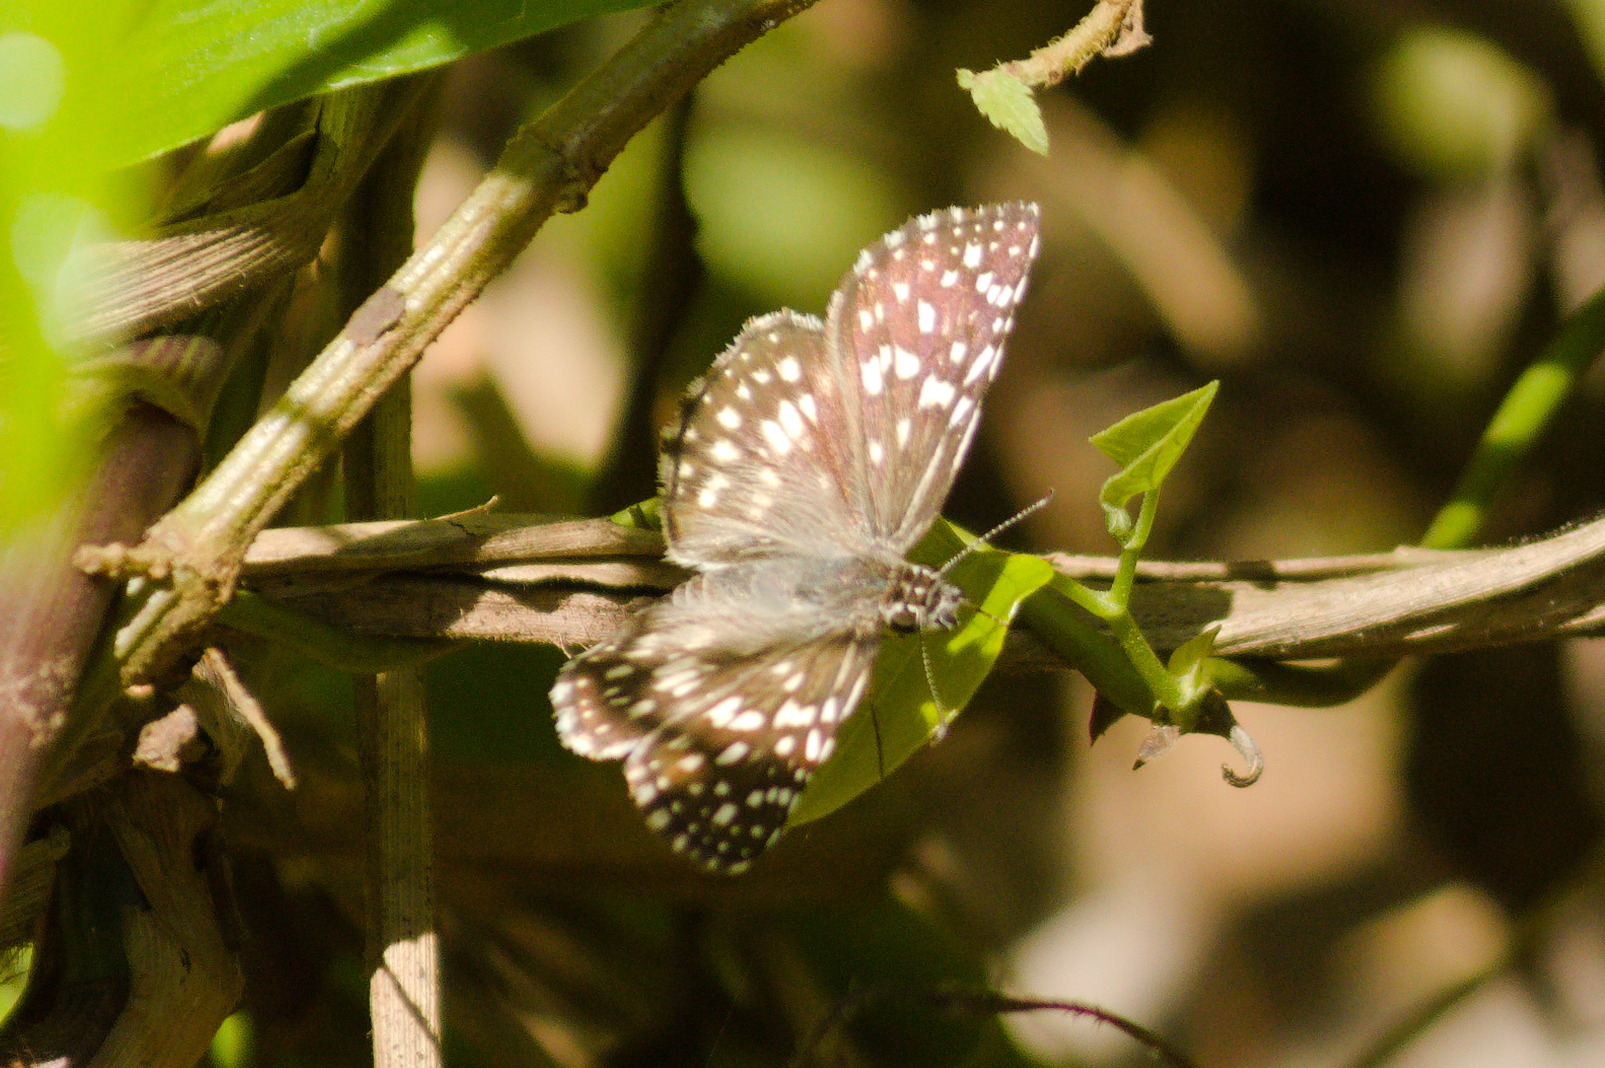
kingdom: Animalia
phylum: Arthropoda
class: Insecta
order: Lepidoptera
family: Hesperiidae
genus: Pyrgus
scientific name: Pyrgus oileus
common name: Tropical checkered-skipper
